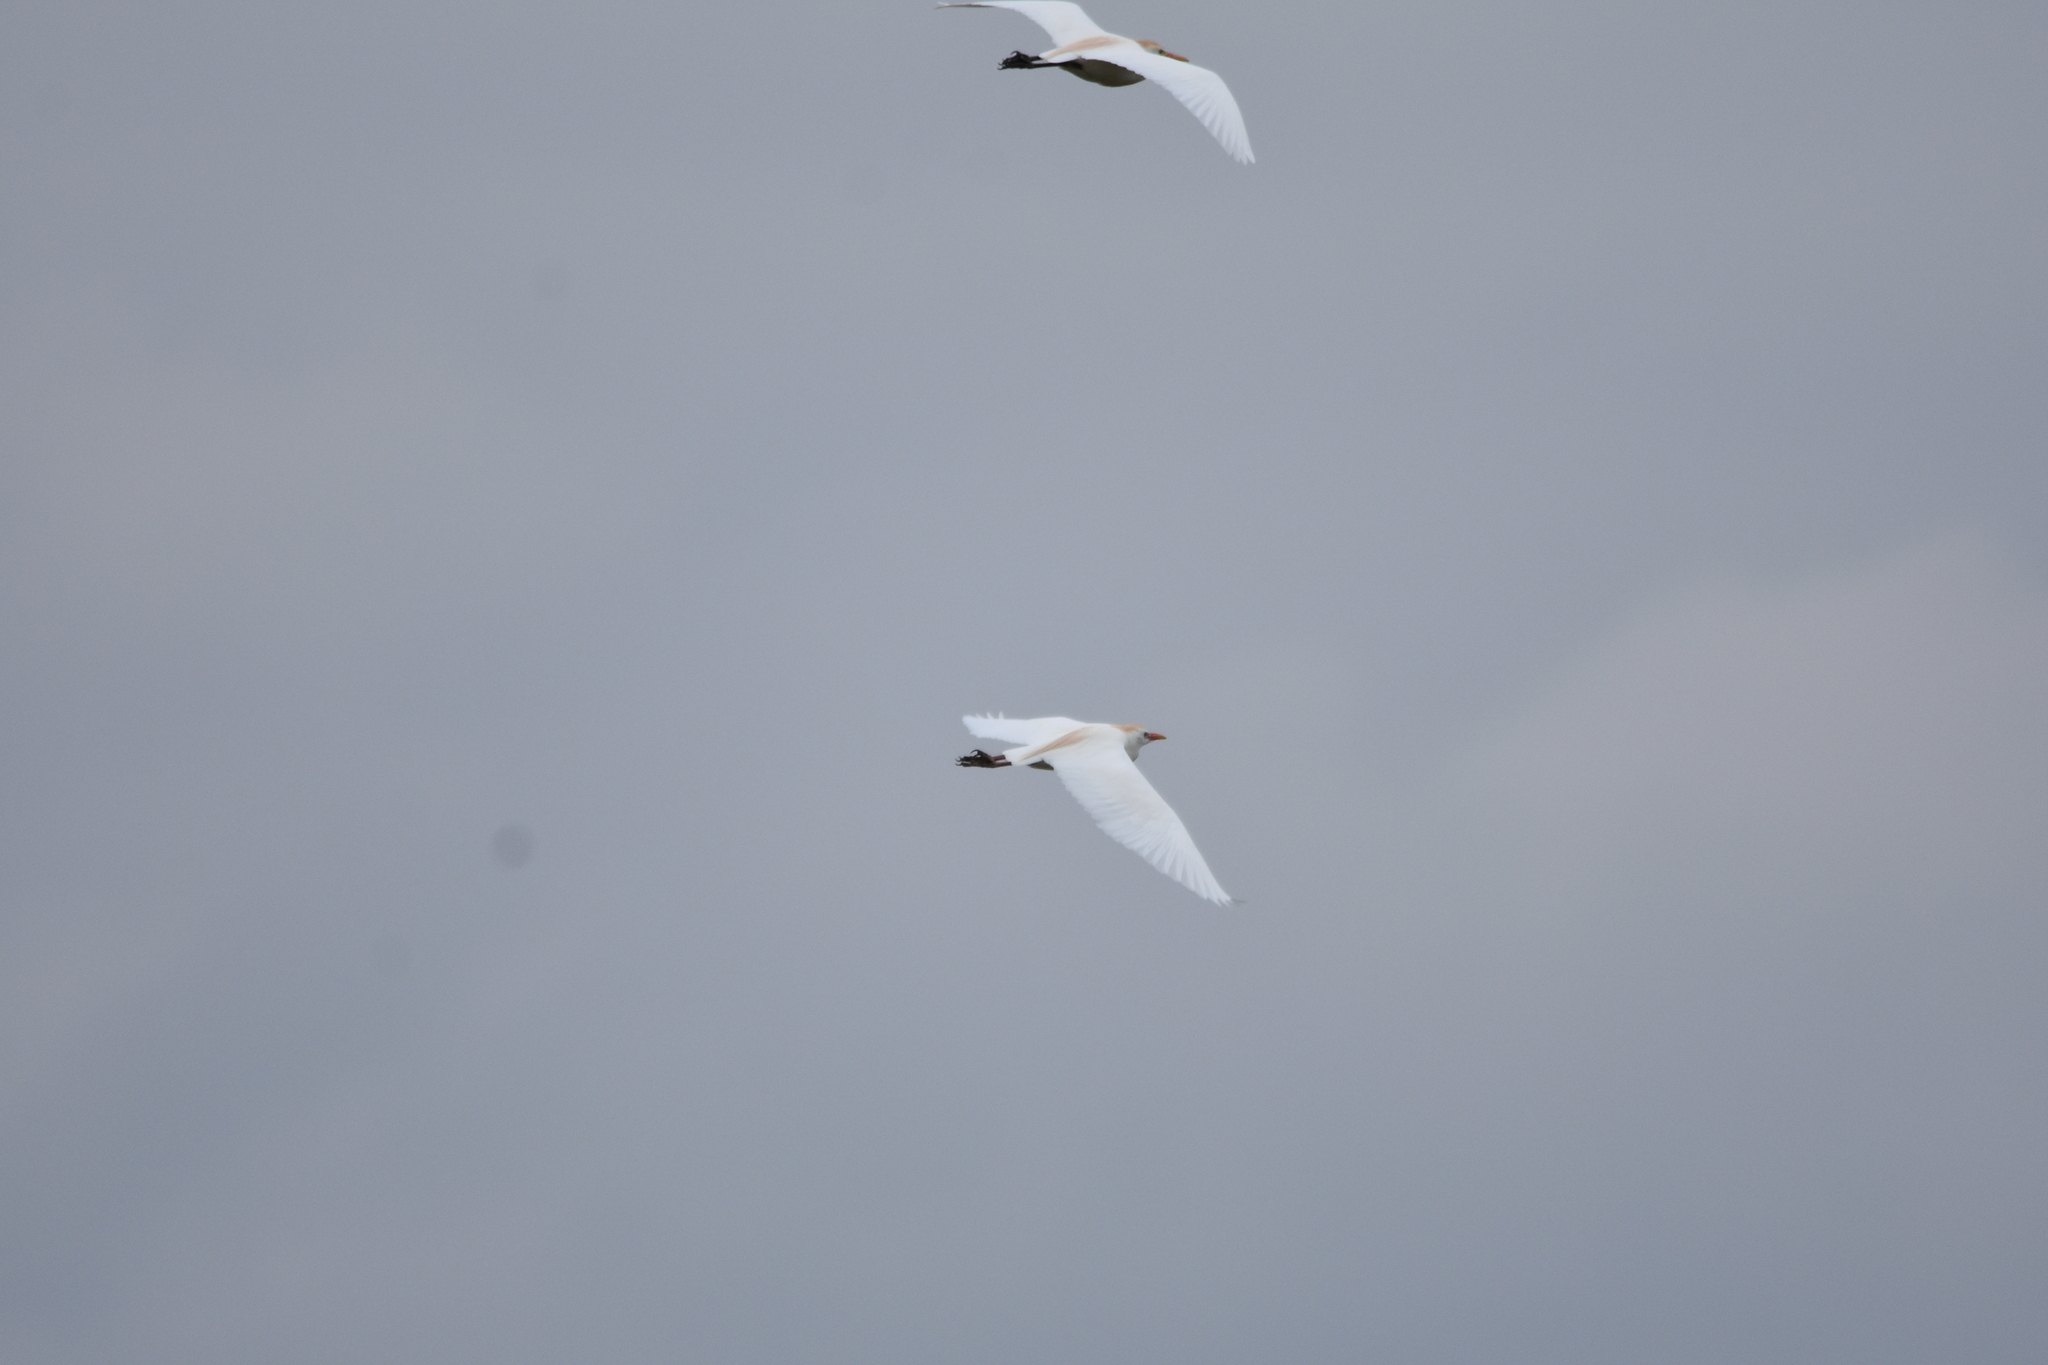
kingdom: Animalia
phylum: Chordata
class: Aves
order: Pelecaniformes
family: Ardeidae
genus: Bubulcus
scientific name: Bubulcus ibis
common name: Cattle egret
